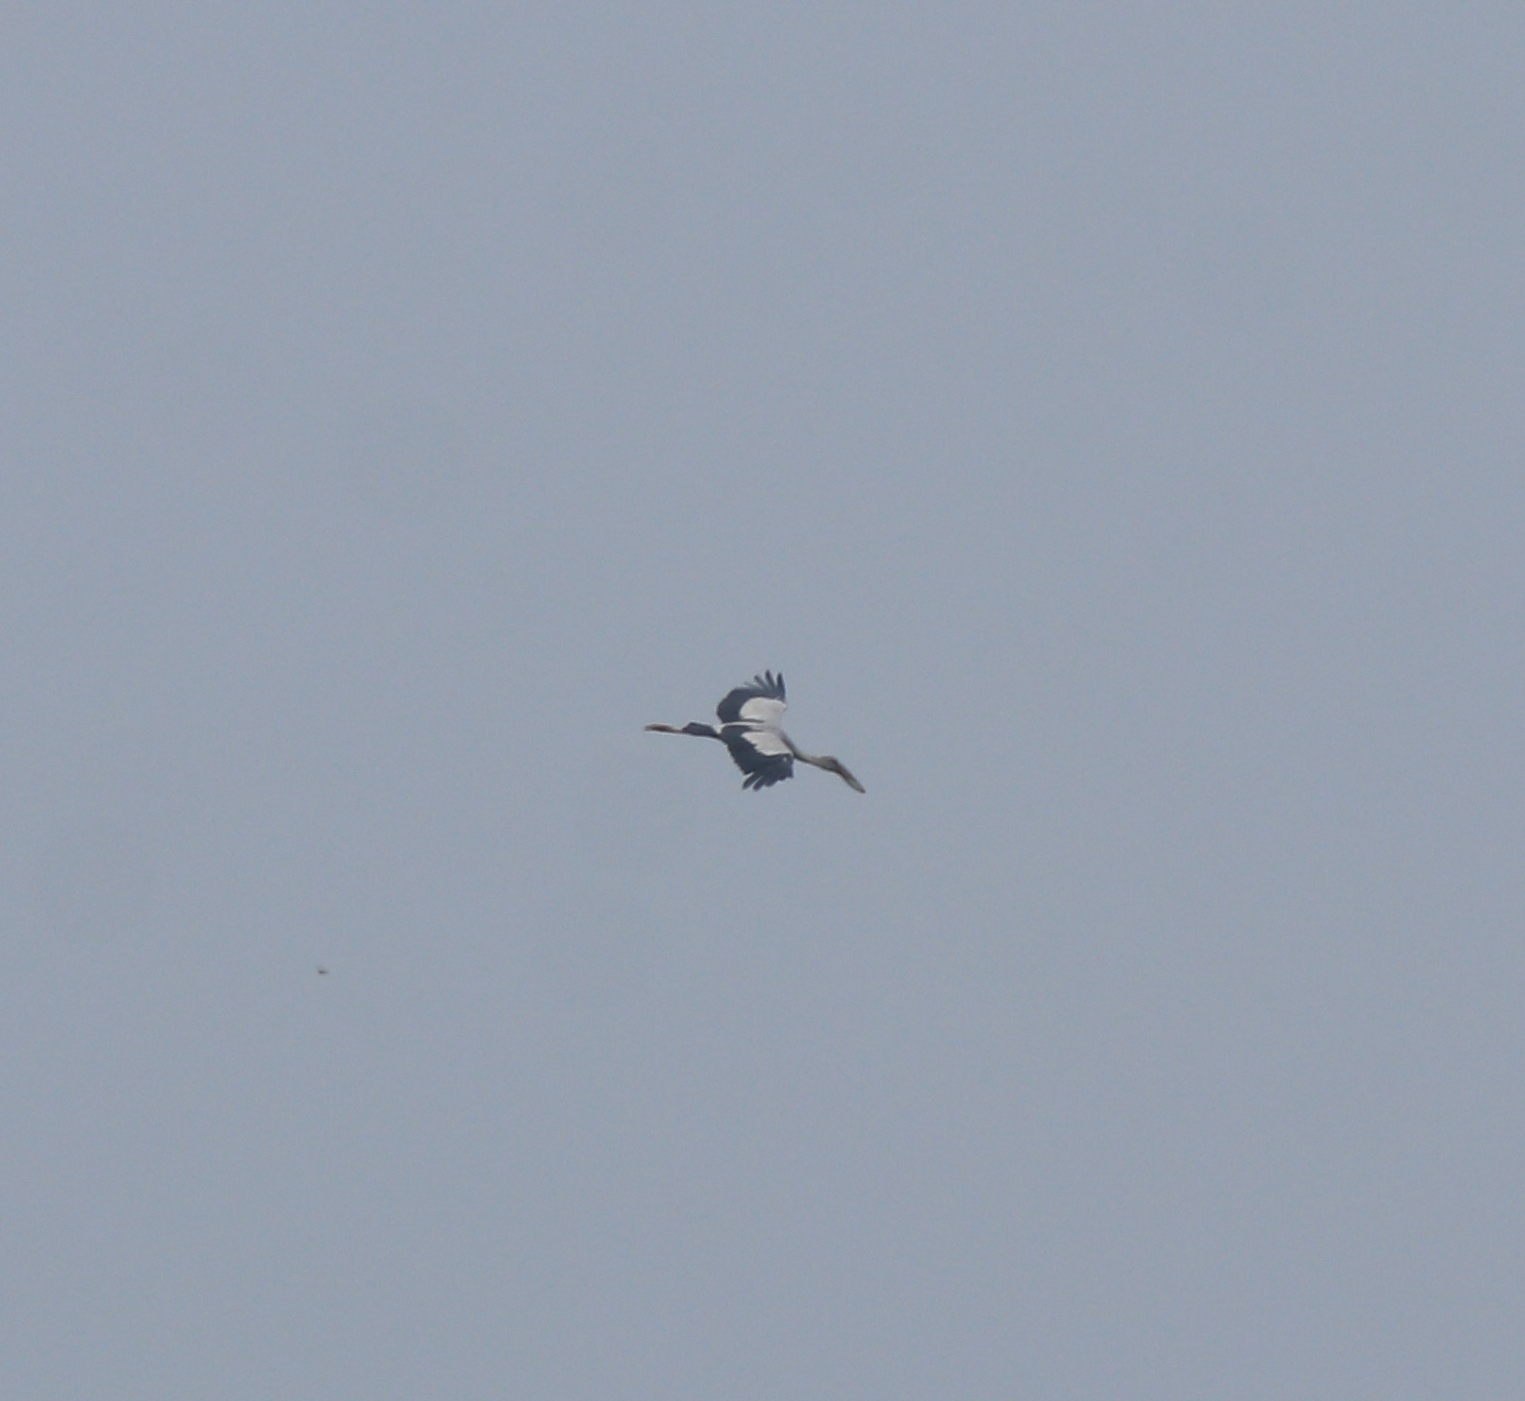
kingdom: Animalia
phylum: Chordata
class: Aves
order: Ciconiiformes
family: Ciconiidae
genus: Anastomus
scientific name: Anastomus oscitans
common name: Asian openbill
